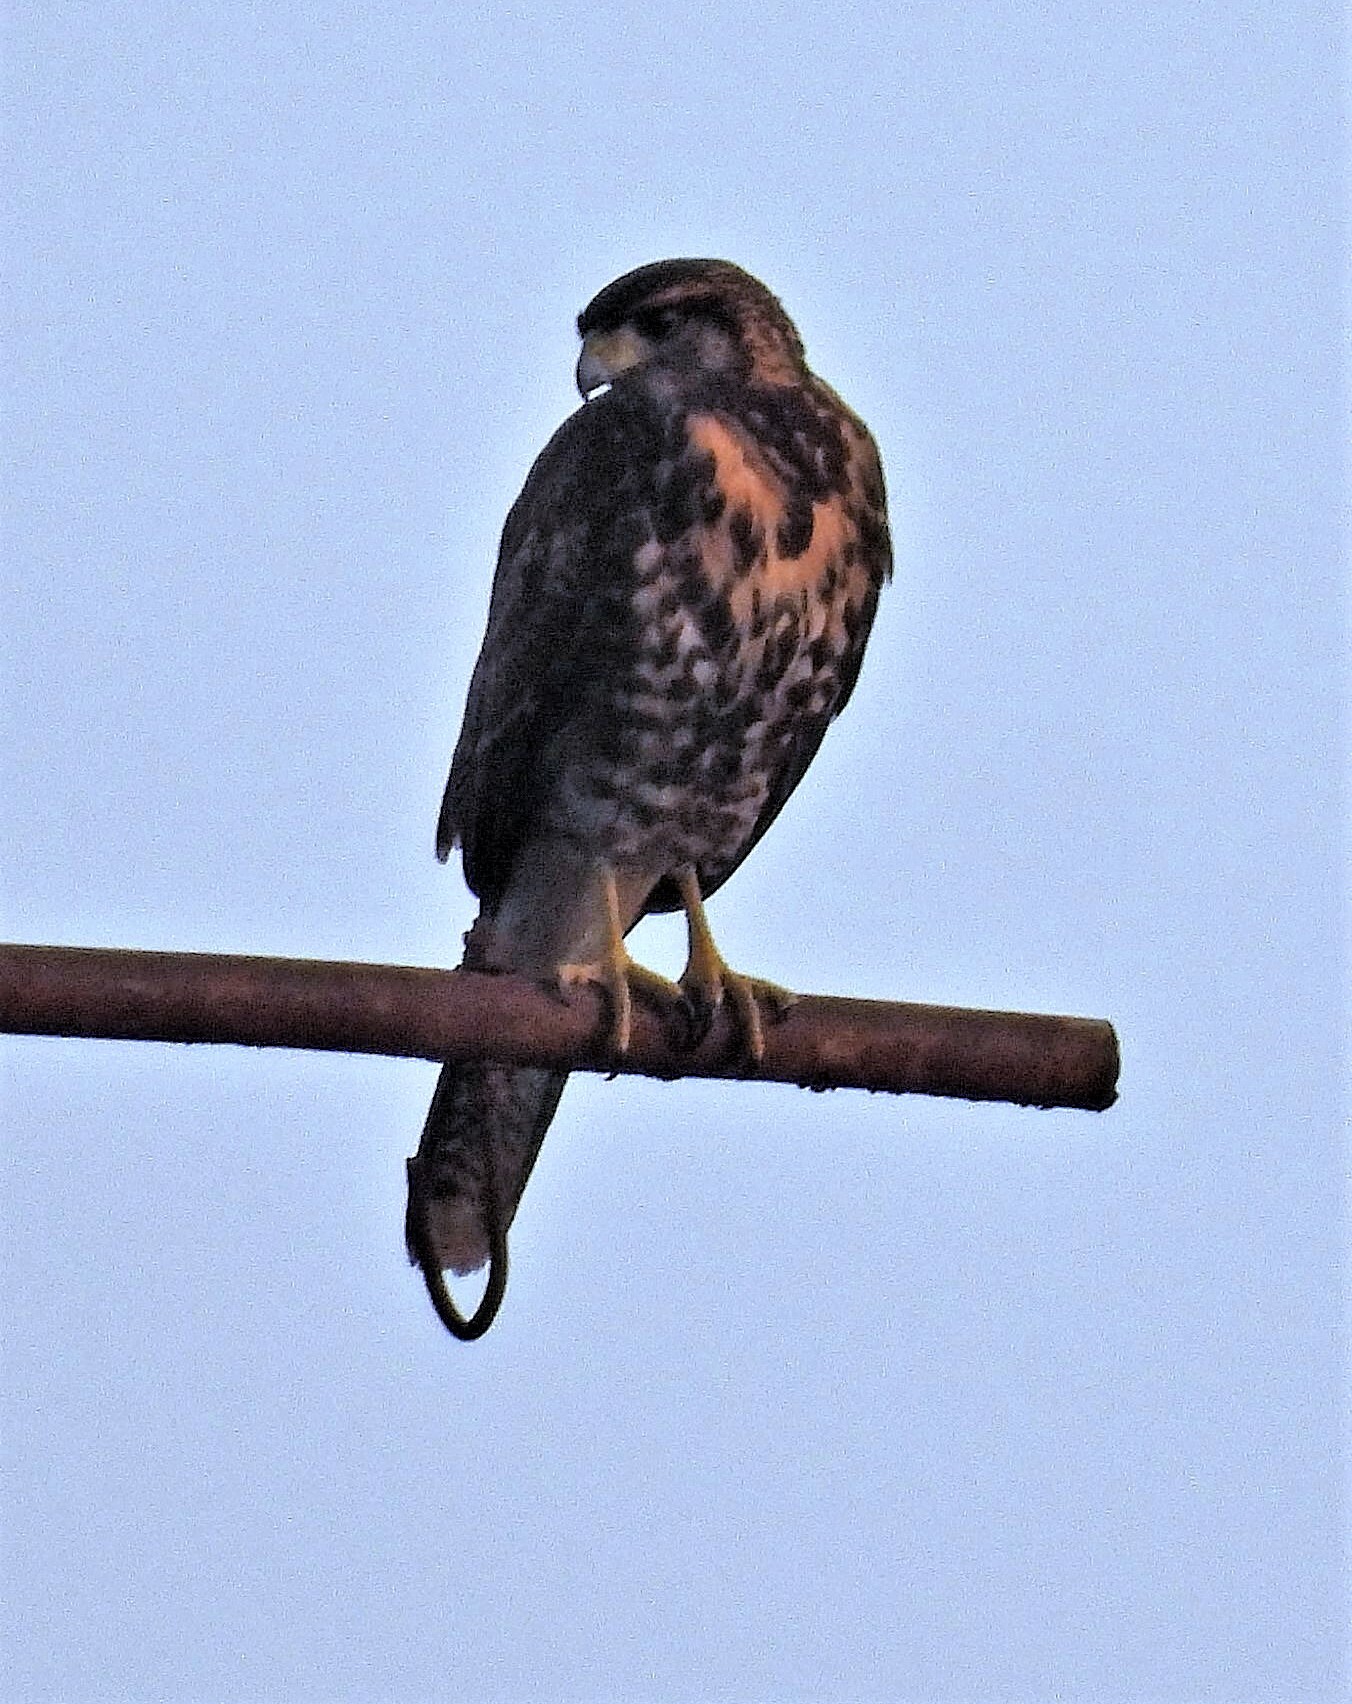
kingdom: Animalia
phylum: Chordata
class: Aves
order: Accipitriformes
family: Accipitridae
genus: Parabuteo
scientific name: Parabuteo unicinctus
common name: Harris's hawk
